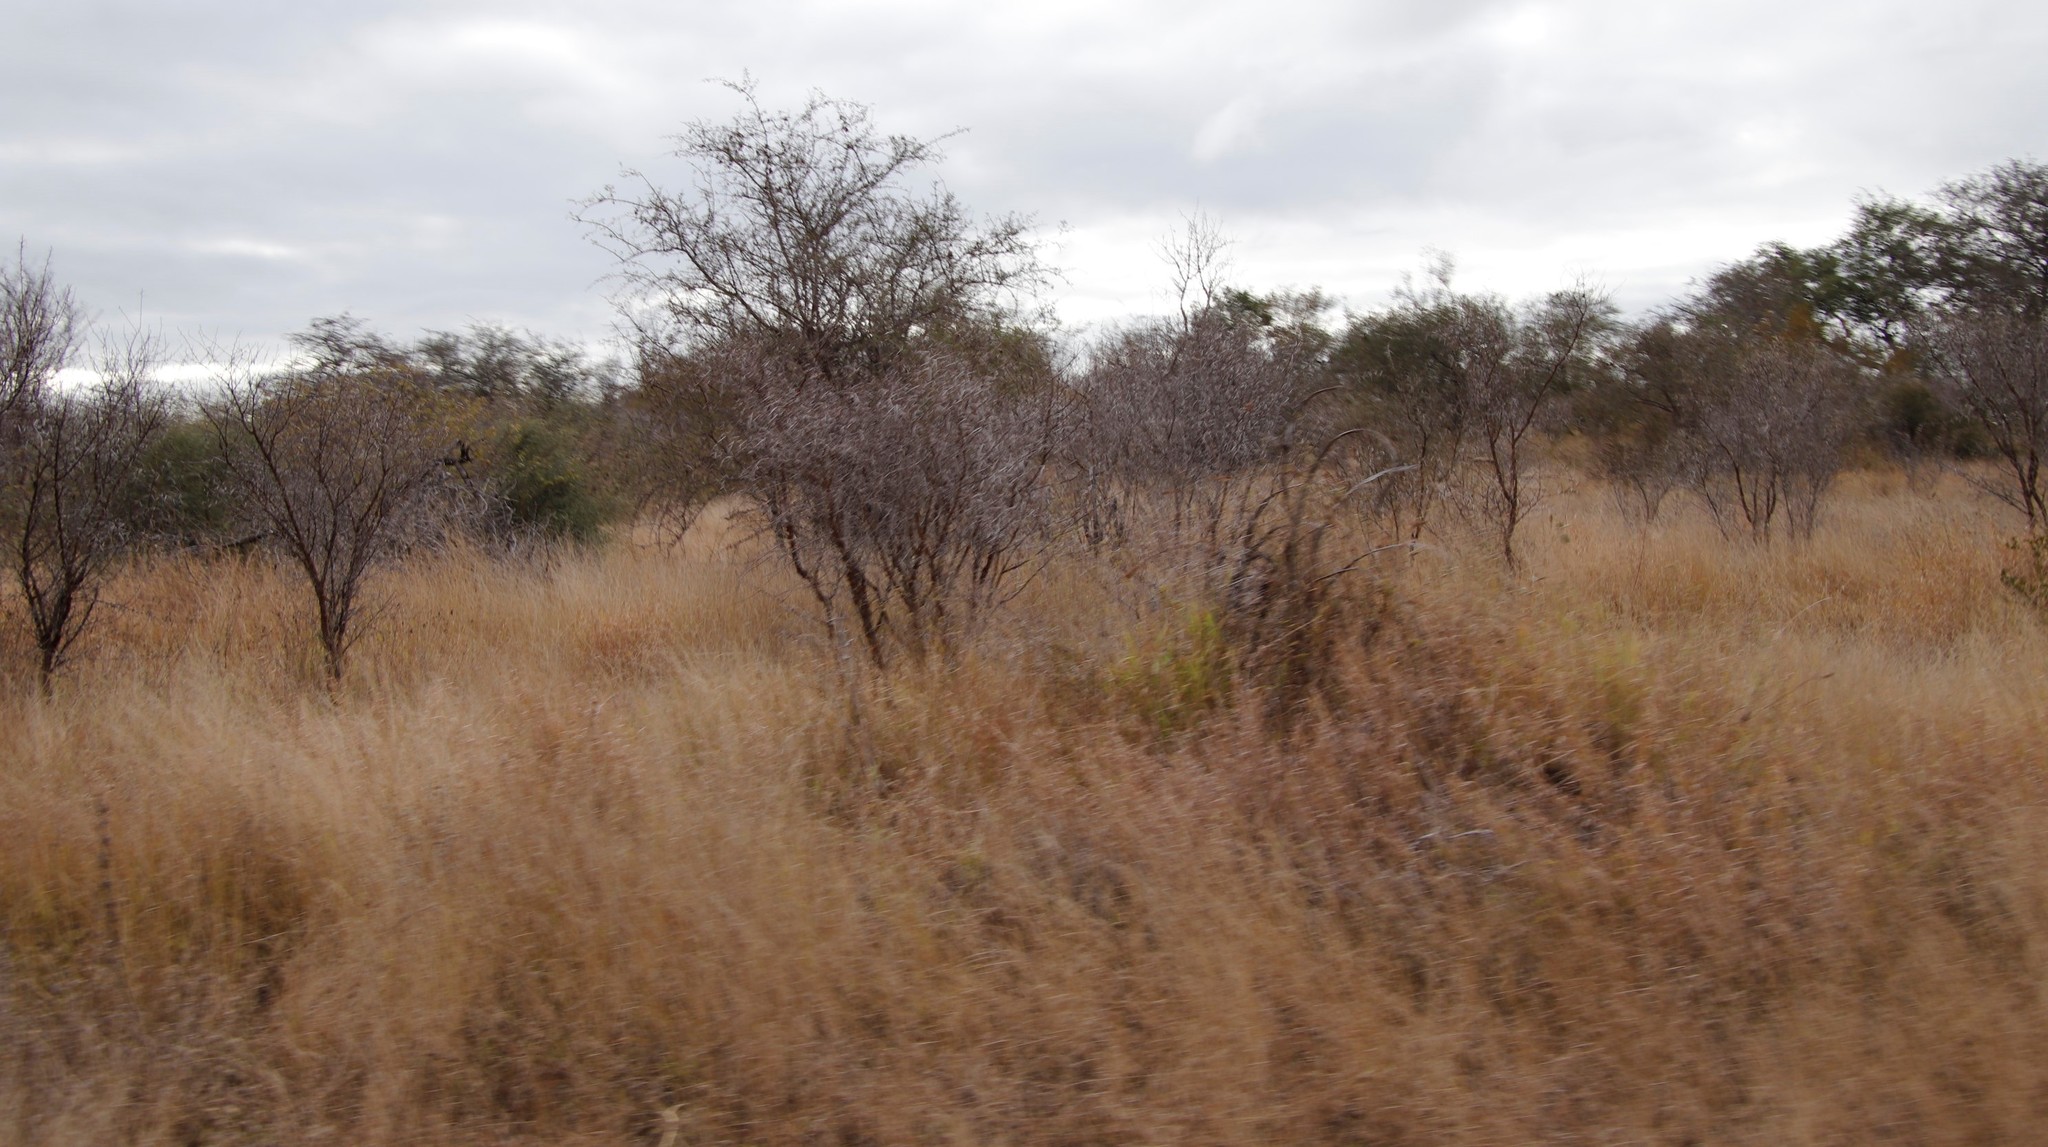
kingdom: Plantae
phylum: Tracheophyta
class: Magnoliopsida
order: Fabales
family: Fabaceae
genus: Vachellia
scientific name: Vachellia karroo
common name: Sweet thorn
